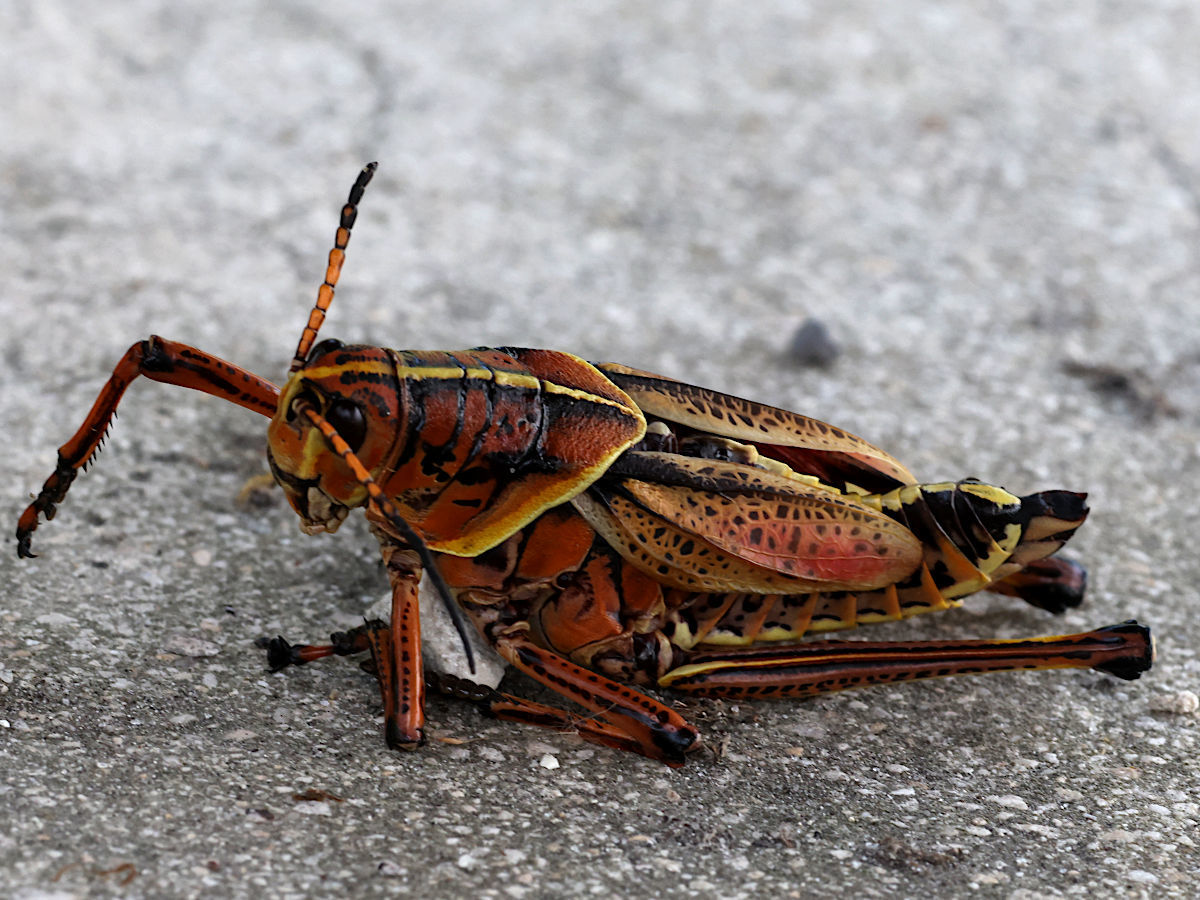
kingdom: Animalia
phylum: Arthropoda
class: Insecta
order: Orthoptera
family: Romaleidae
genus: Romalea
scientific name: Romalea microptera
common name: Eastern lubber grasshopper
